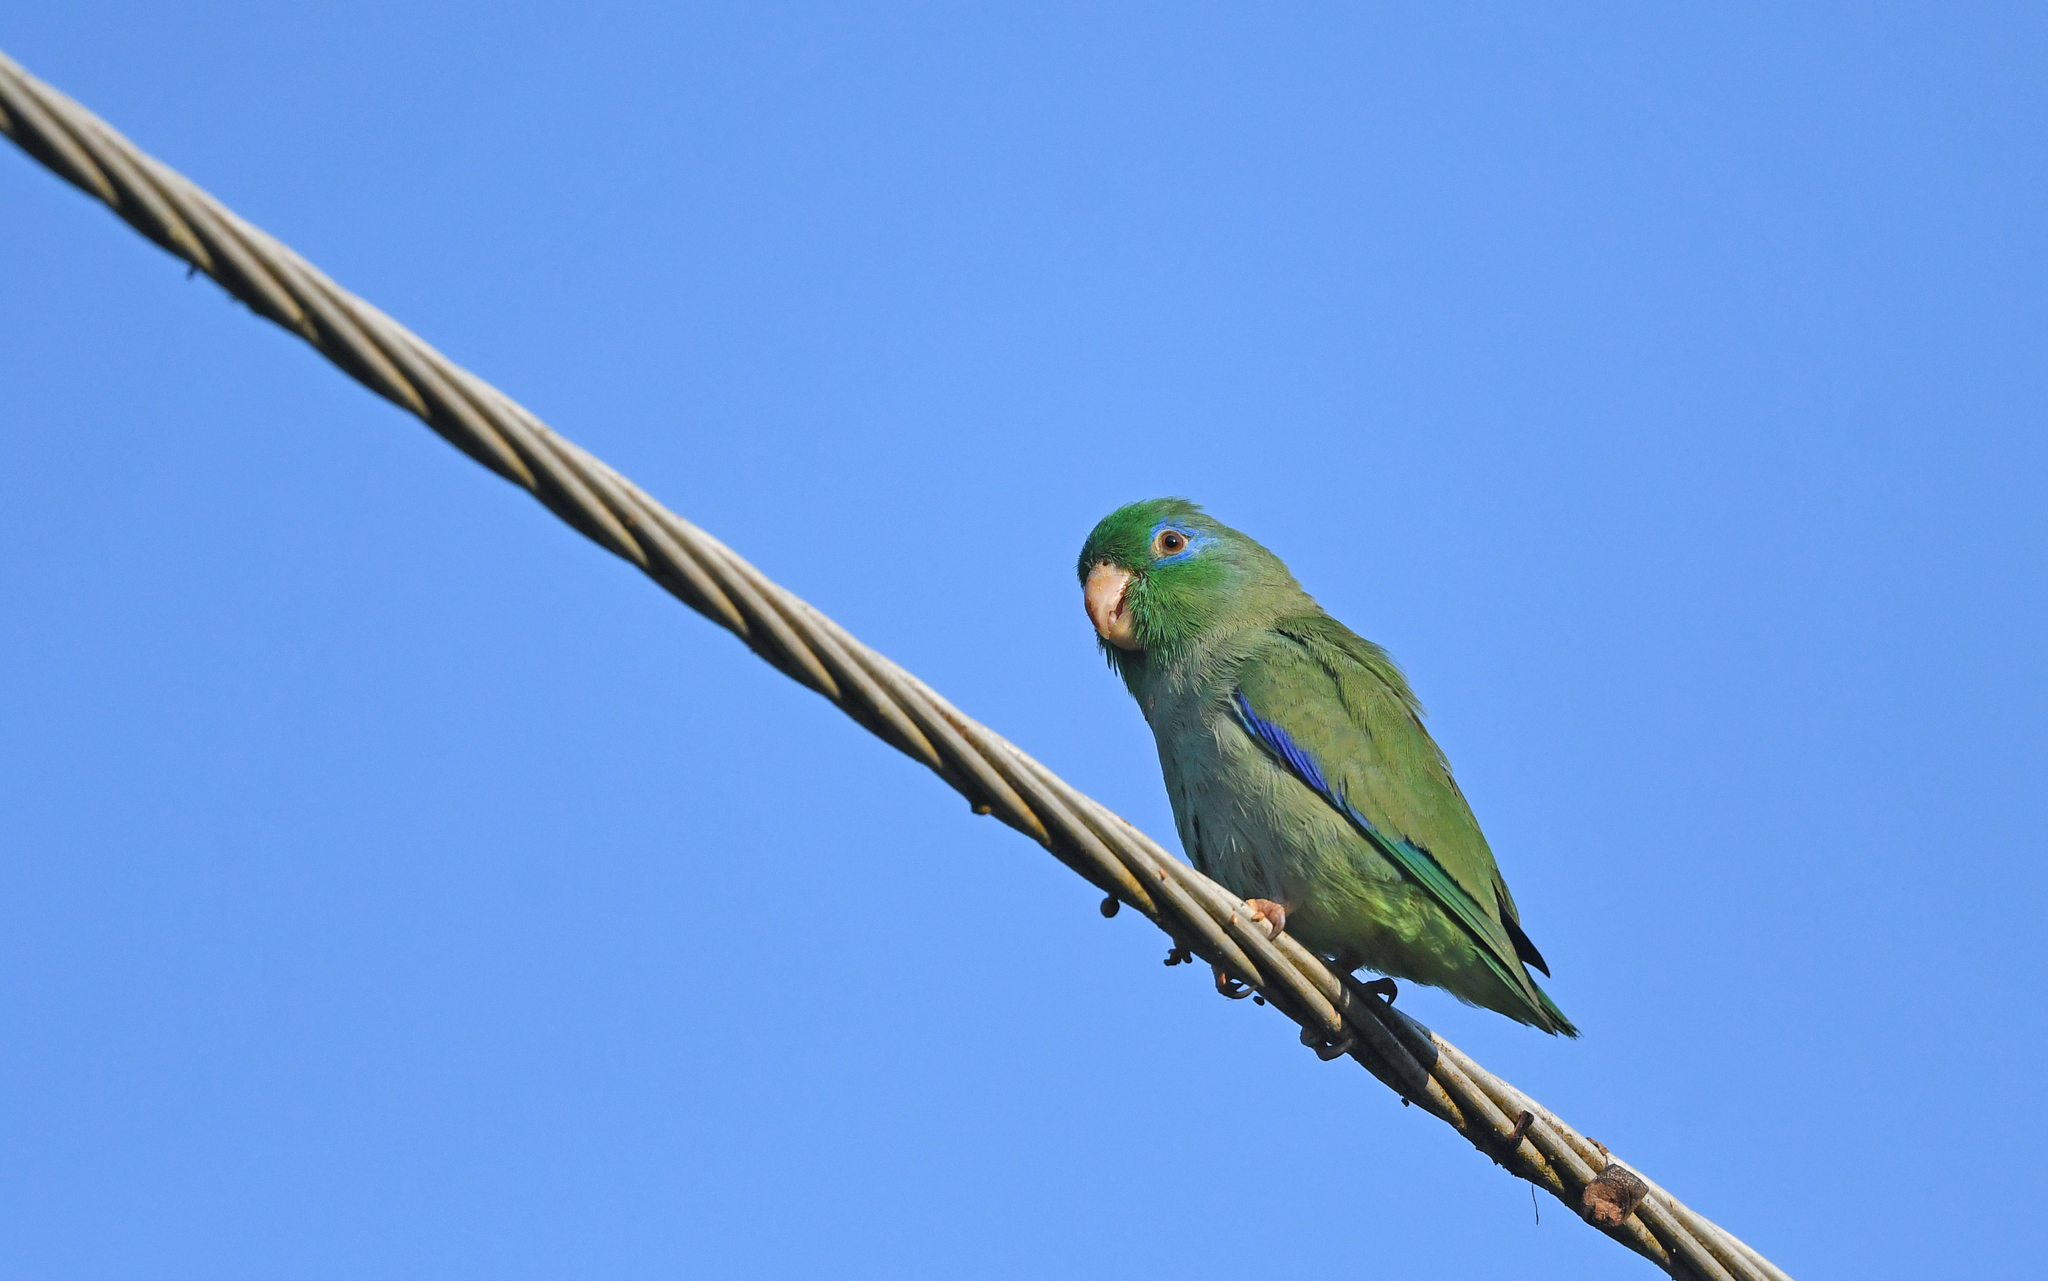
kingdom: Animalia
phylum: Chordata
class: Aves
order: Psittaciformes
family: Psittacidae
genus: Forpus
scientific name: Forpus conspicillatus
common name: Spectacled parrotlet
